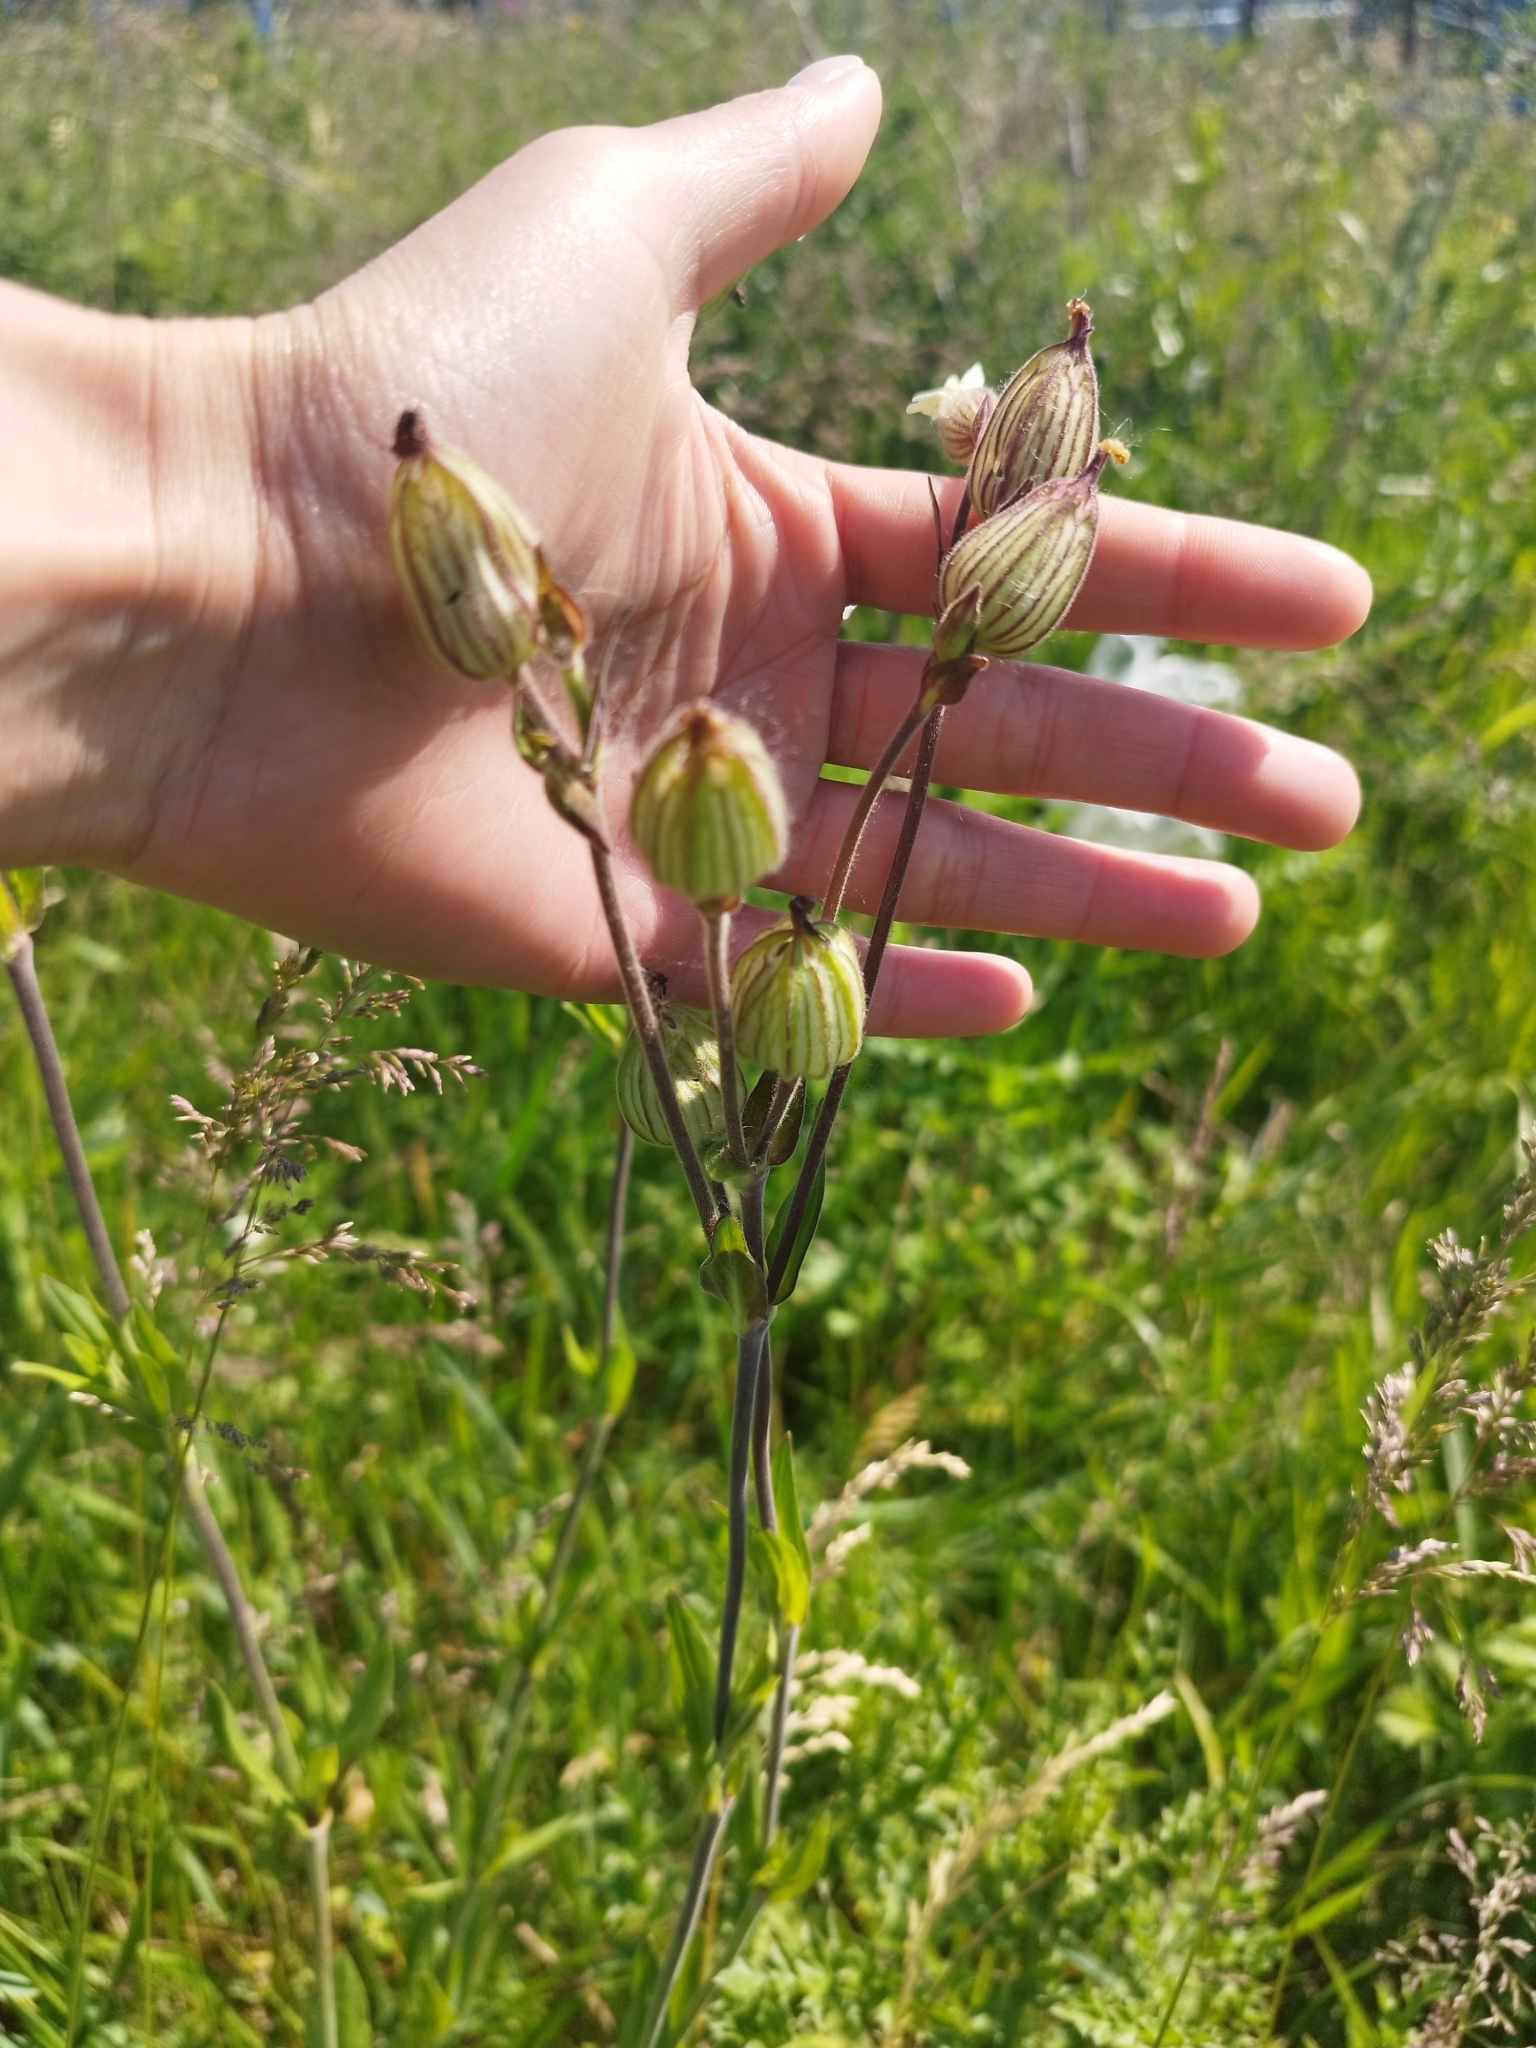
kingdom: Plantae
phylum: Tracheophyta
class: Magnoliopsida
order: Caryophyllales
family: Caryophyllaceae
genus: Silene
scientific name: Silene latifolia
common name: White campion
